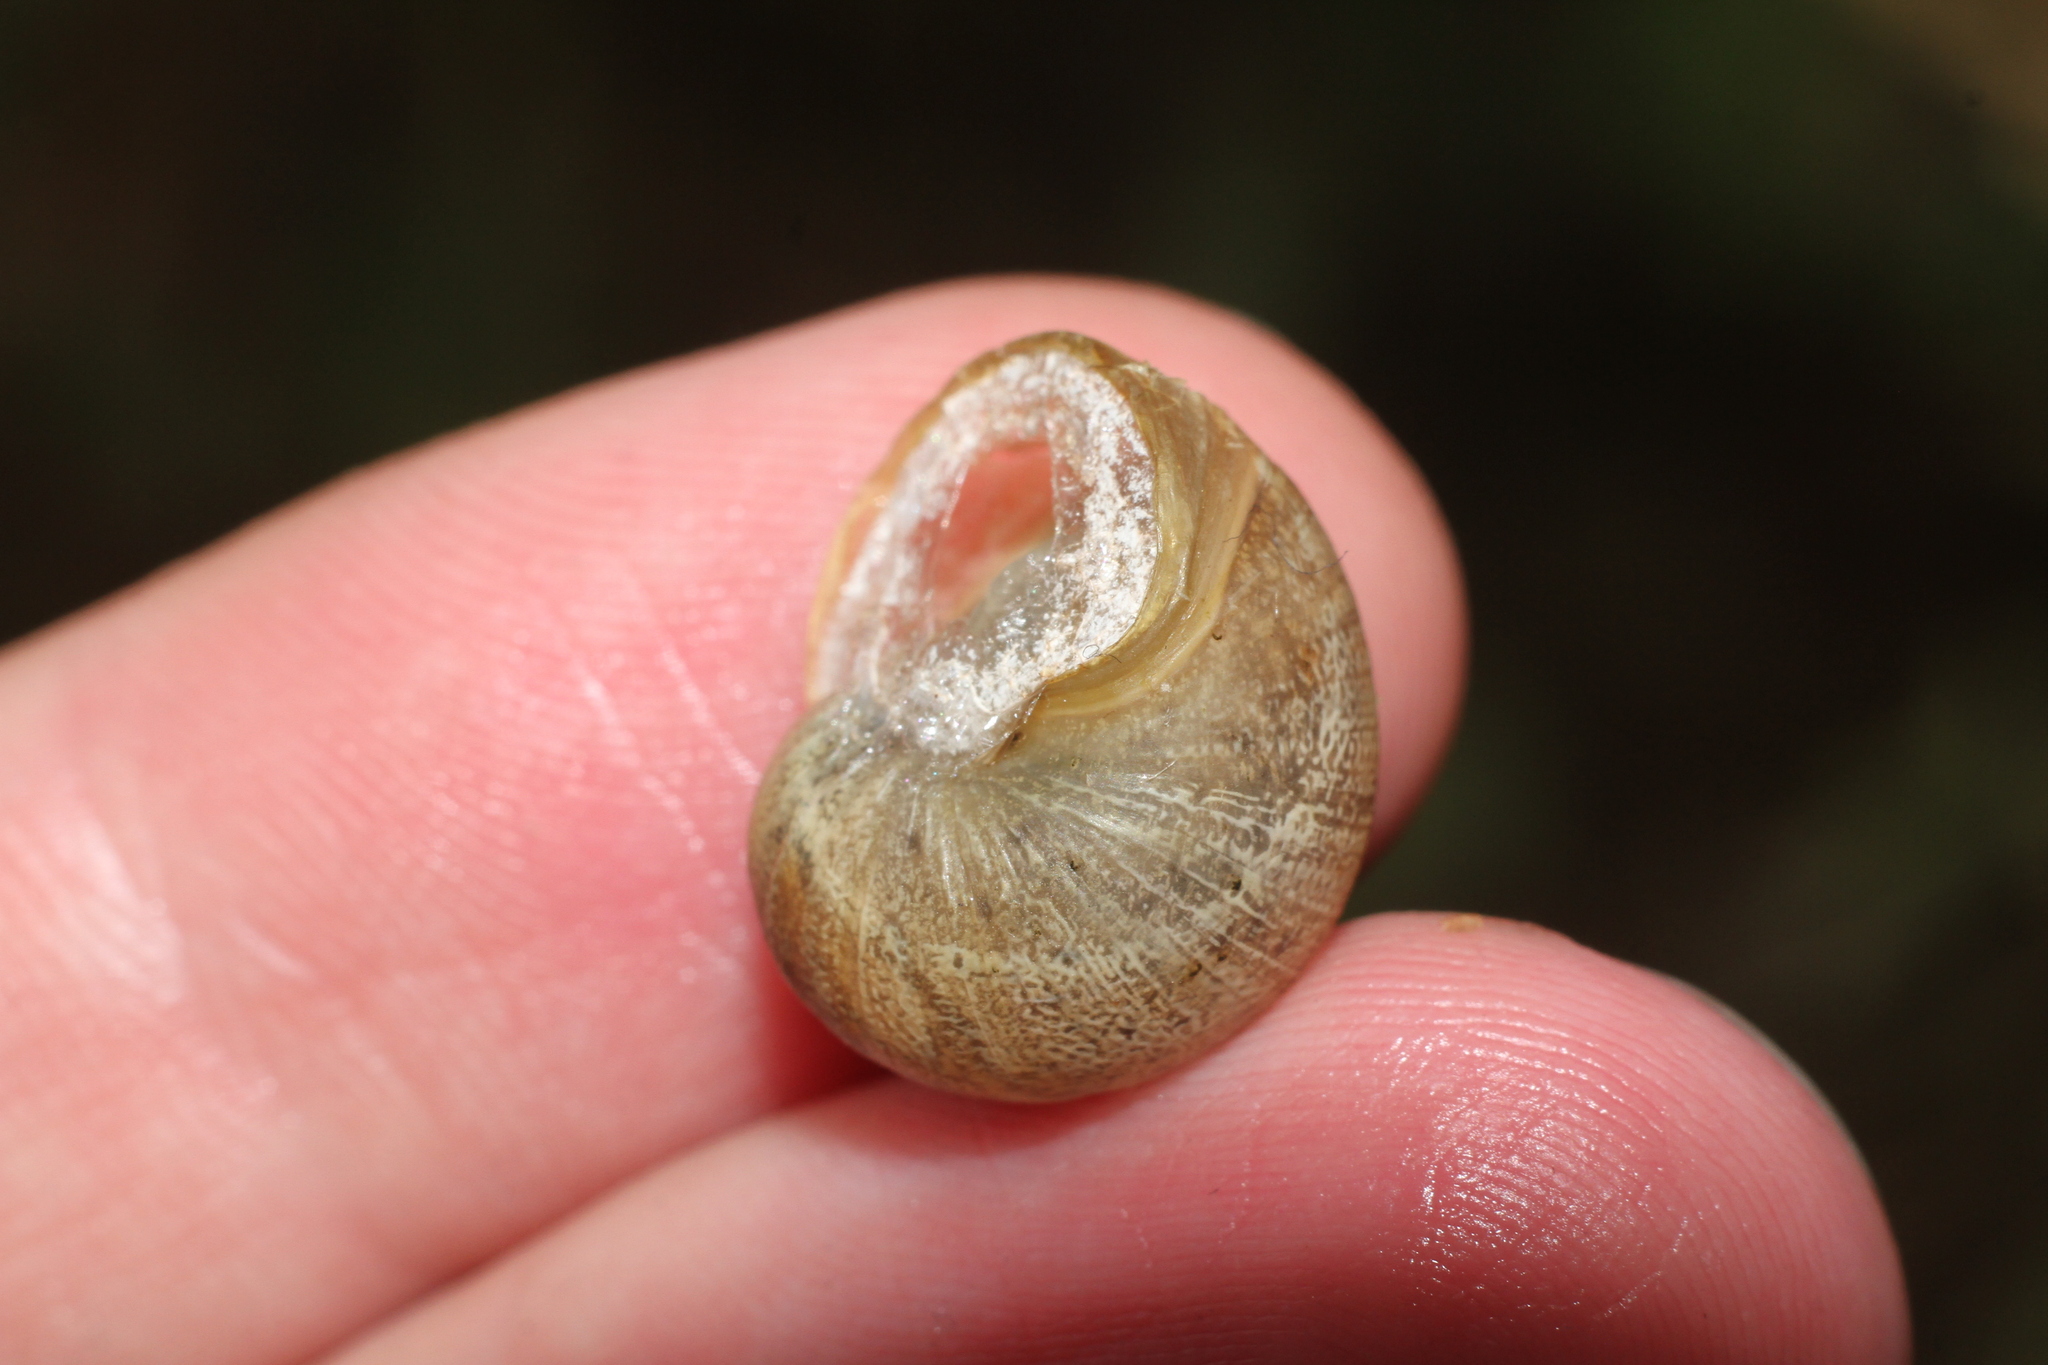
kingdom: Animalia
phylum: Mollusca
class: Gastropoda
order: Stylommatophora
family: Helicidae
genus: Cornu
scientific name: Cornu aspersum
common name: Brown garden snail
